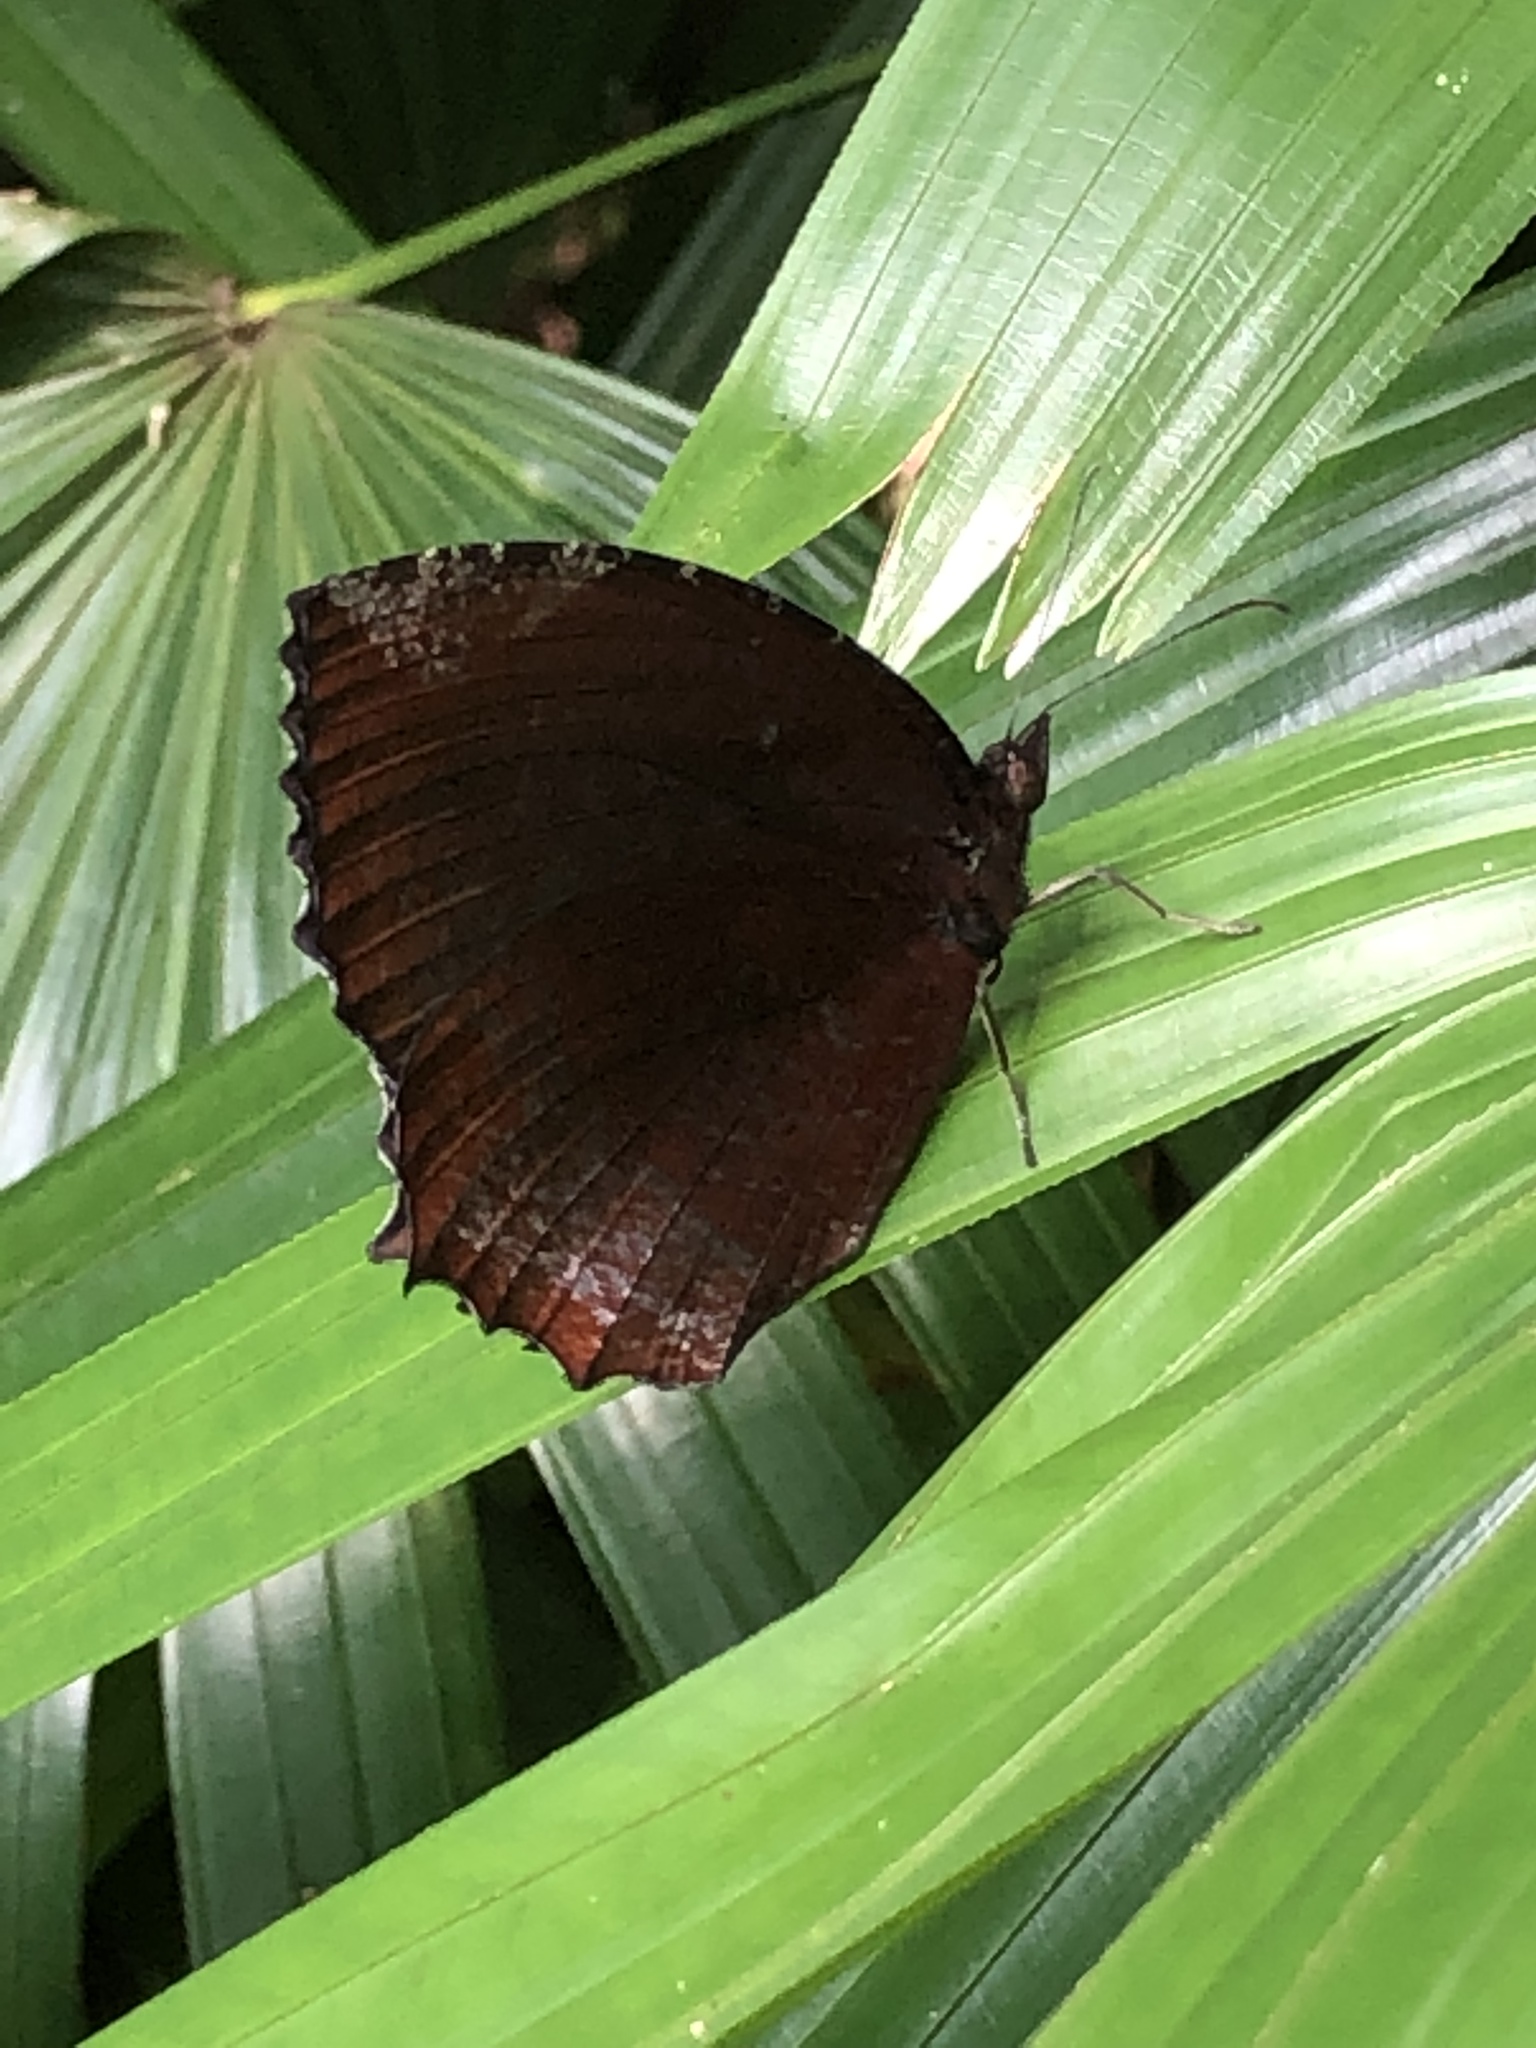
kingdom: Animalia
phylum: Arthropoda
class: Insecta
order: Lepidoptera
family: Nymphalidae
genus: Elymnias
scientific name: Elymnias hypermnestra
